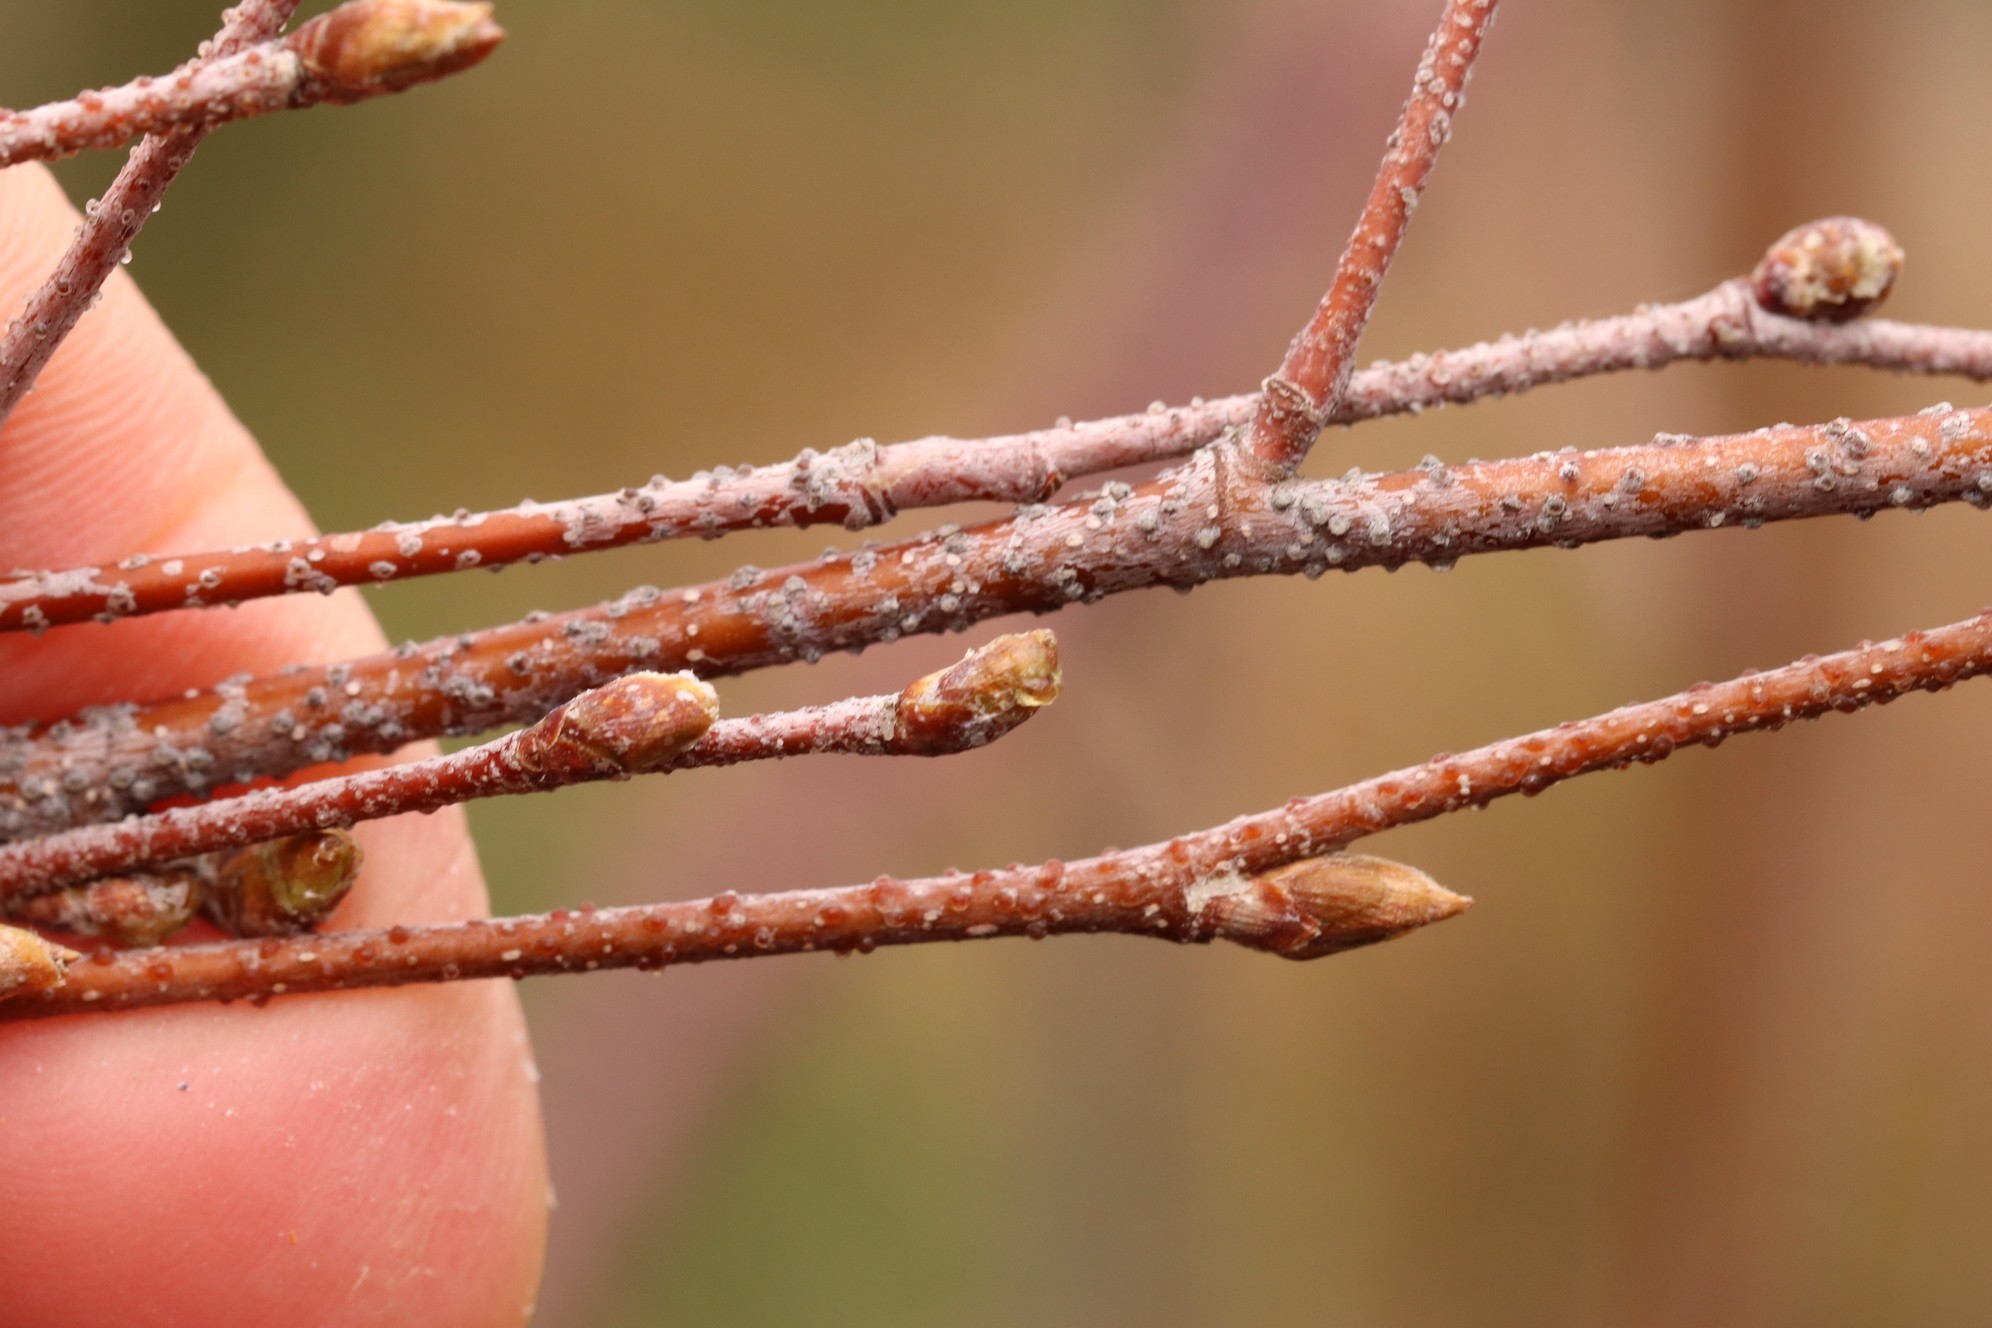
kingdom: Plantae
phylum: Tracheophyta
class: Magnoliopsida
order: Fagales
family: Betulaceae
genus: Betula
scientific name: Betula pendula
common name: Silver birch
